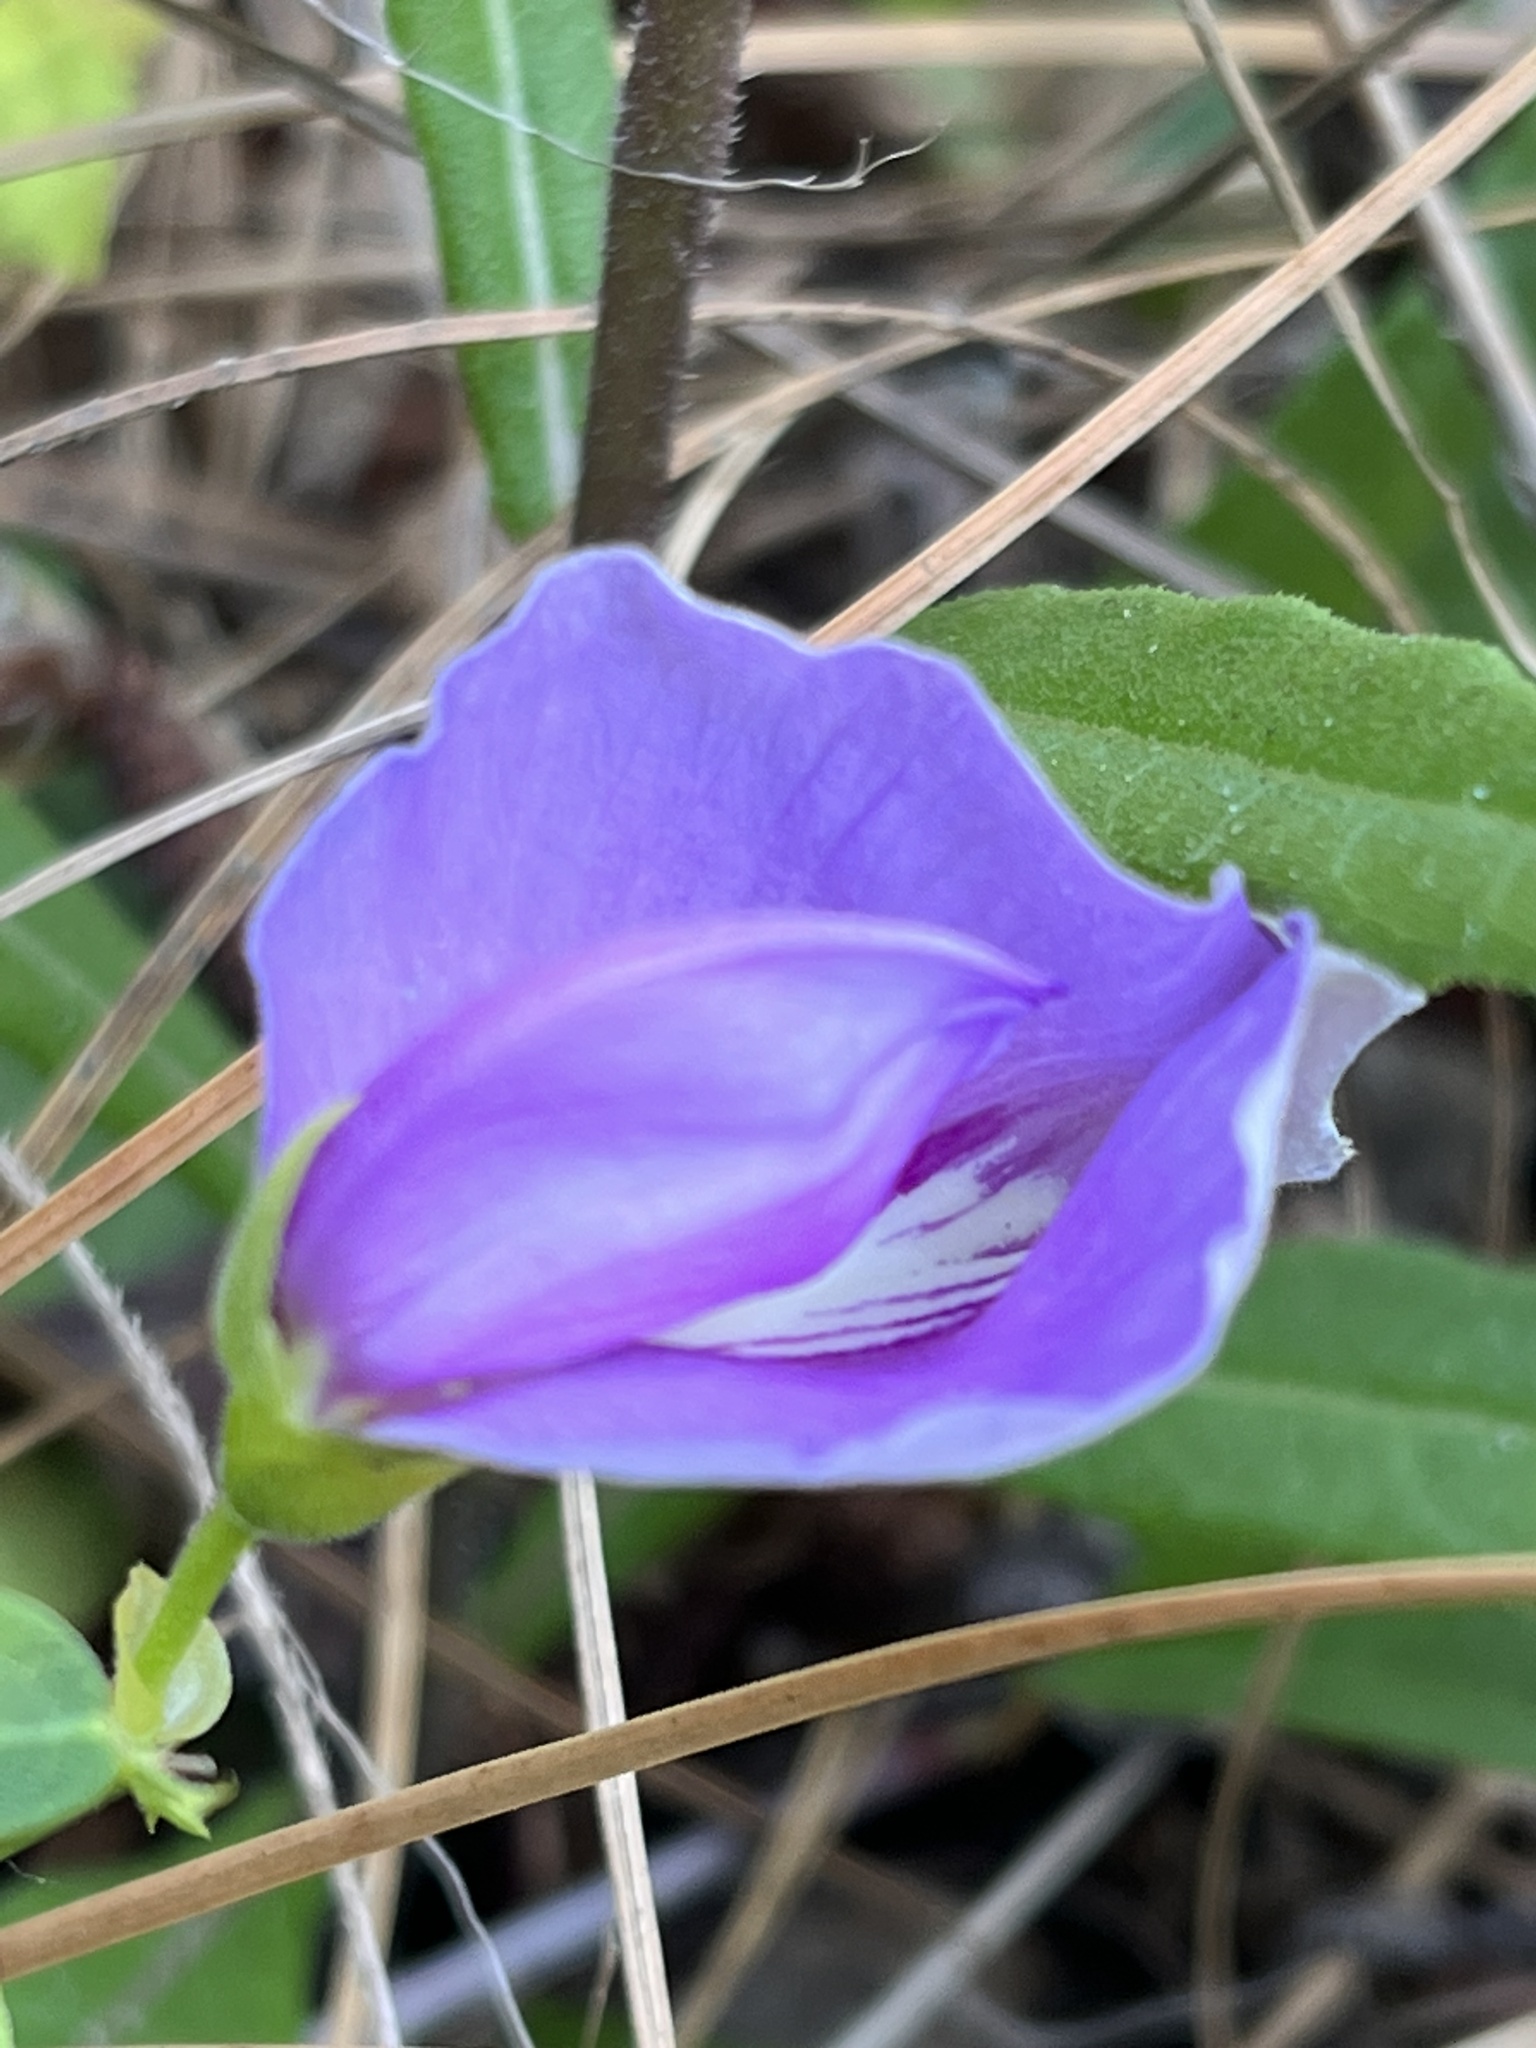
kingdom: Plantae
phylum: Tracheophyta
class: Magnoliopsida
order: Fabales
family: Fabaceae
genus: Centrosema
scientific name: Centrosema virginianum
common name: Butterfly-pea
